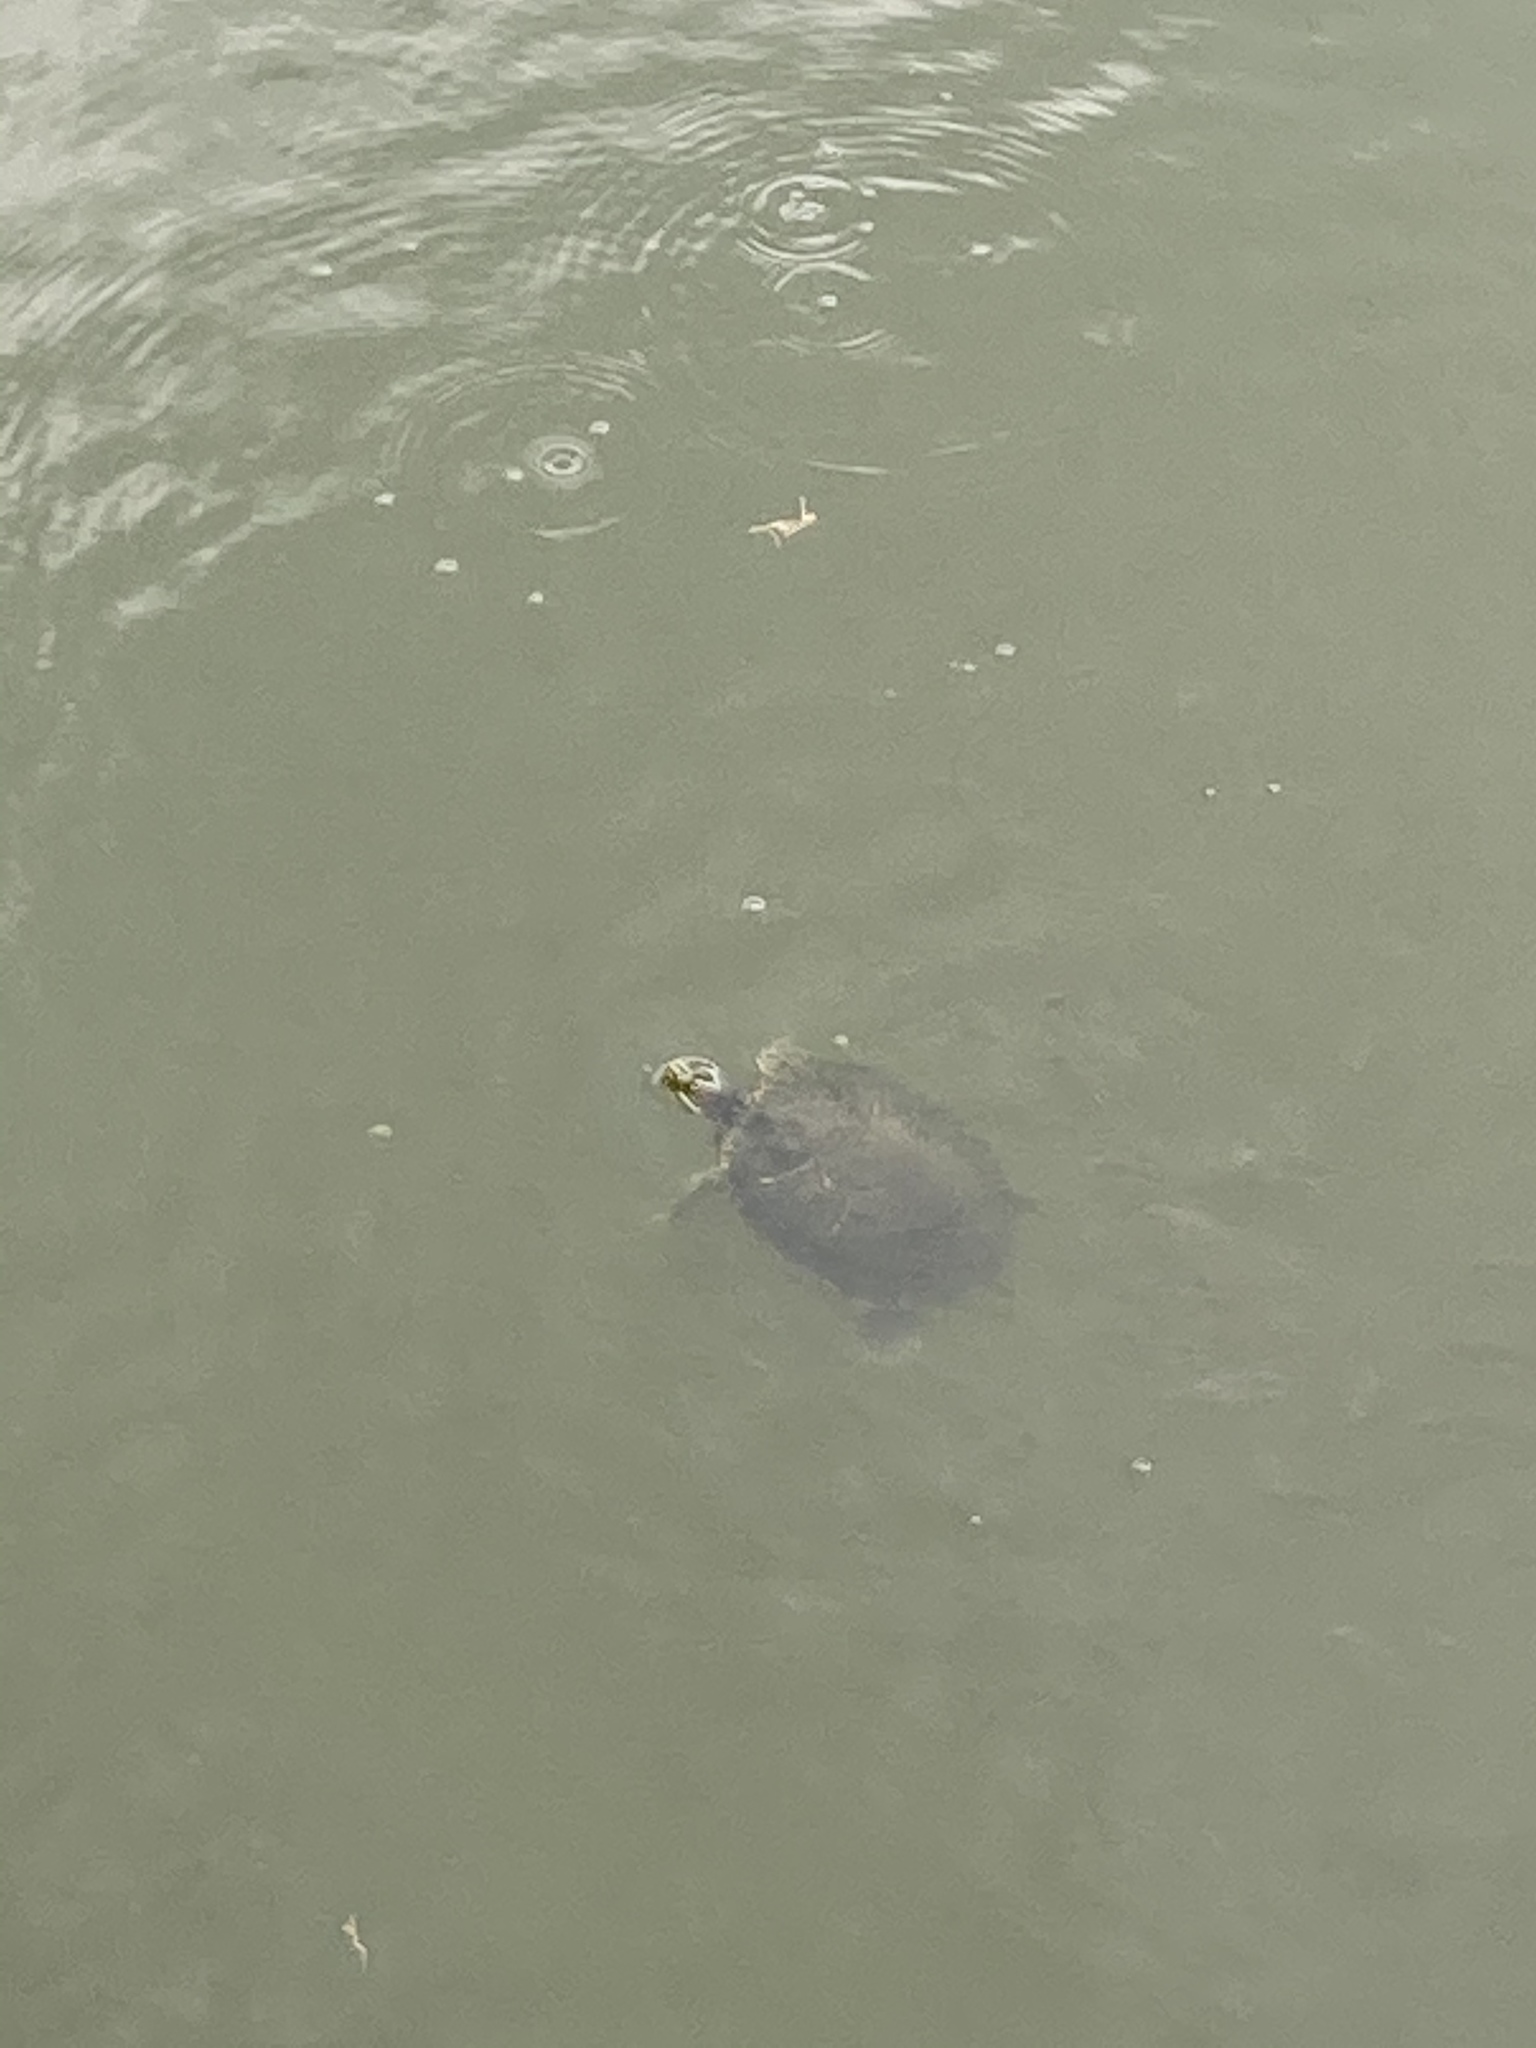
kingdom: Animalia
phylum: Chordata
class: Testudines
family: Emydidae
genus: Trachemys
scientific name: Trachemys scripta
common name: Slider
